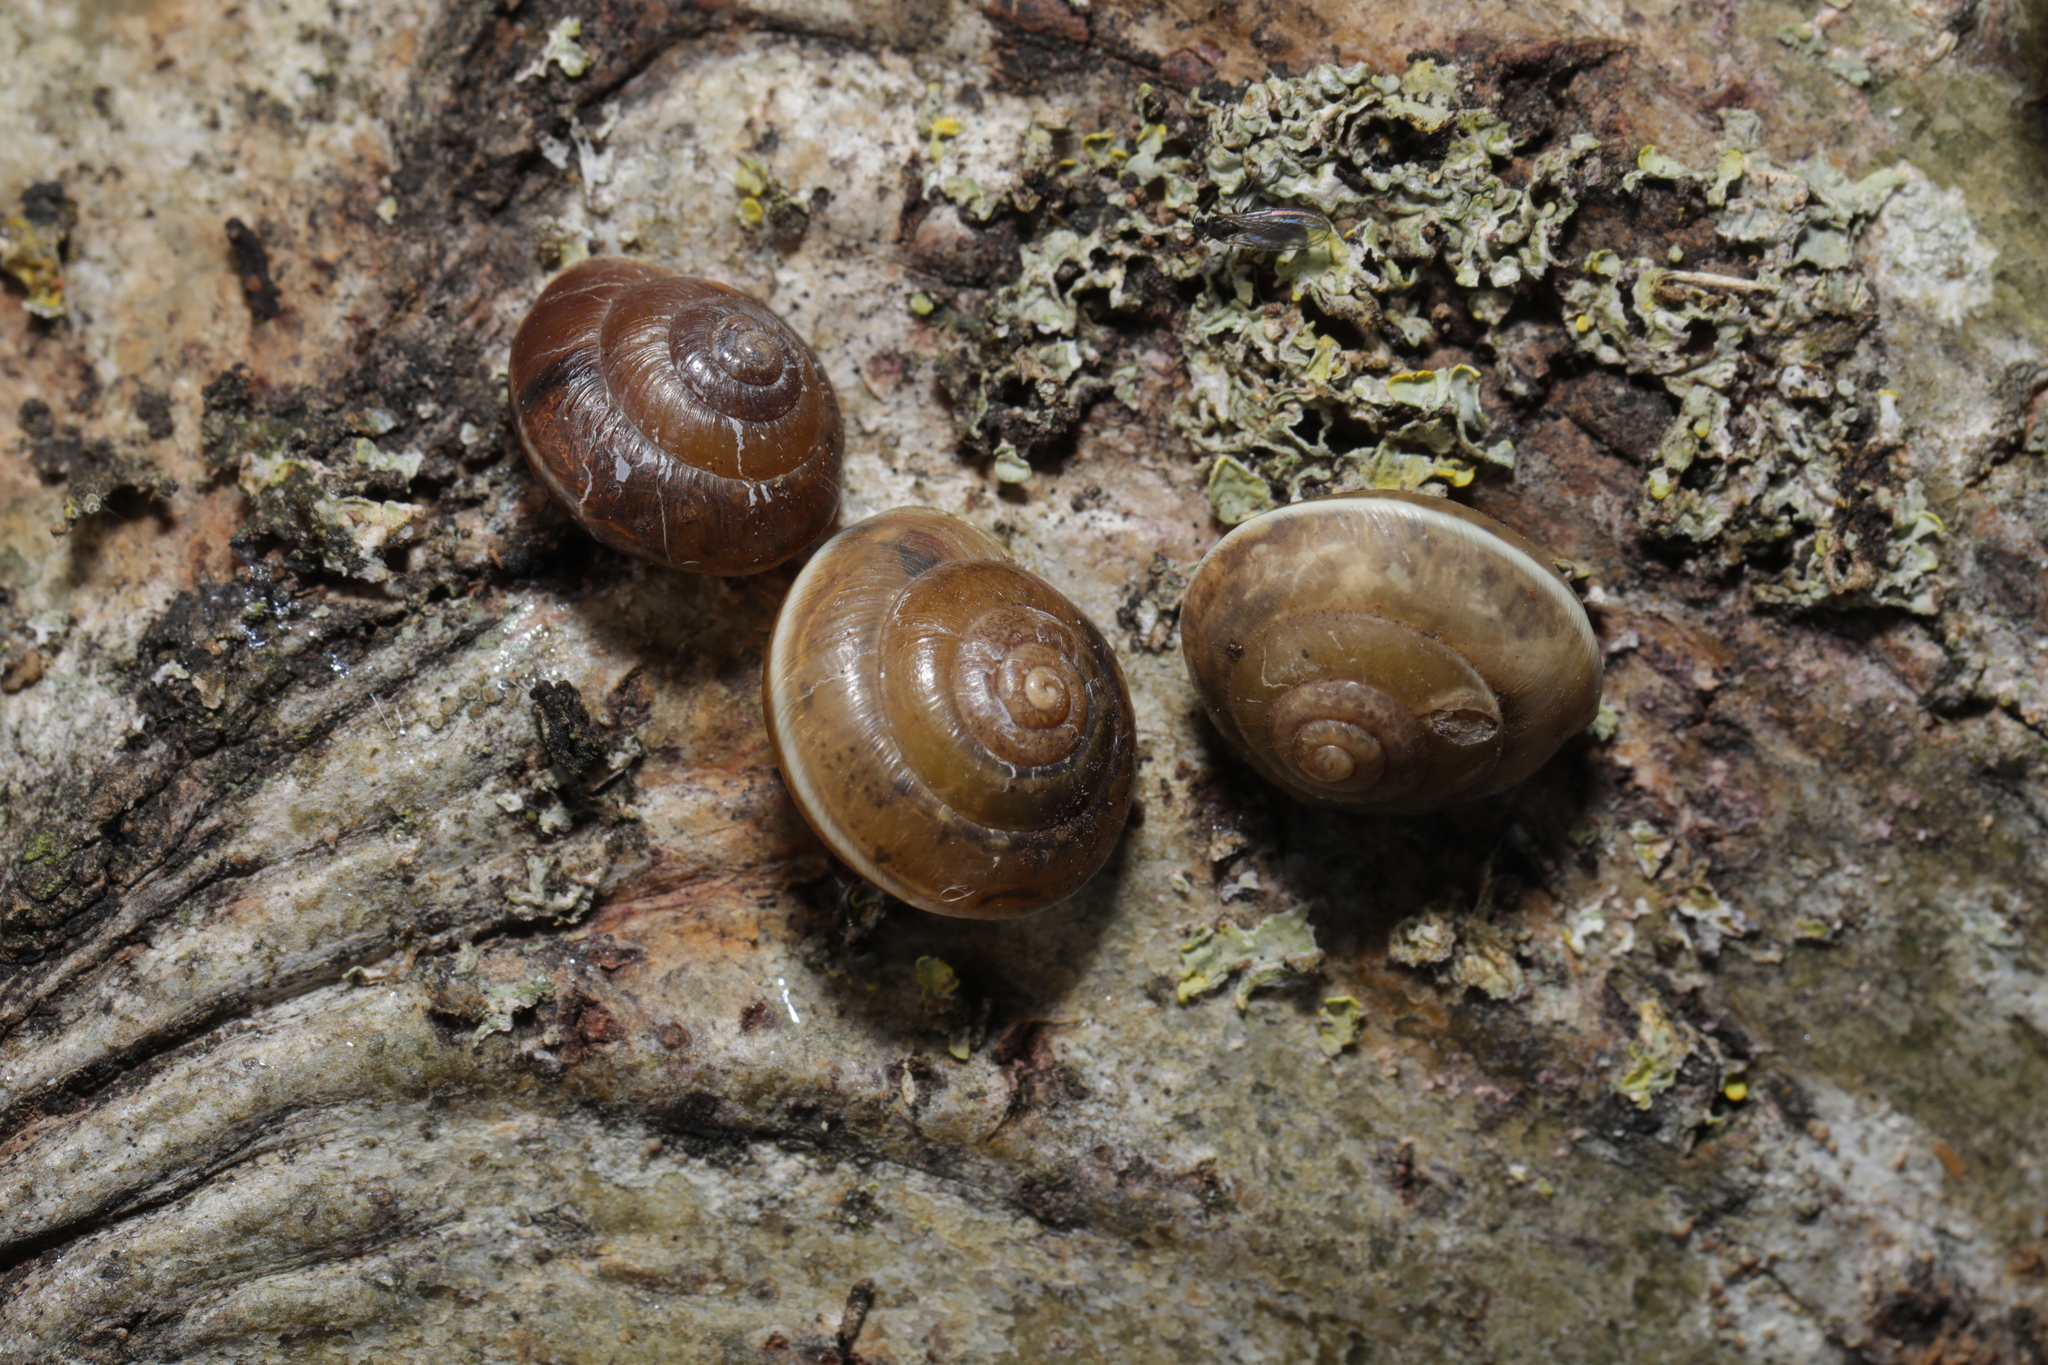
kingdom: Animalia
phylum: Mollusca
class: Gastropoda
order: Stylommatophora
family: Hygromiidae
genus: Hygromia
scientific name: Hygromia cinctella
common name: Girdled snail
